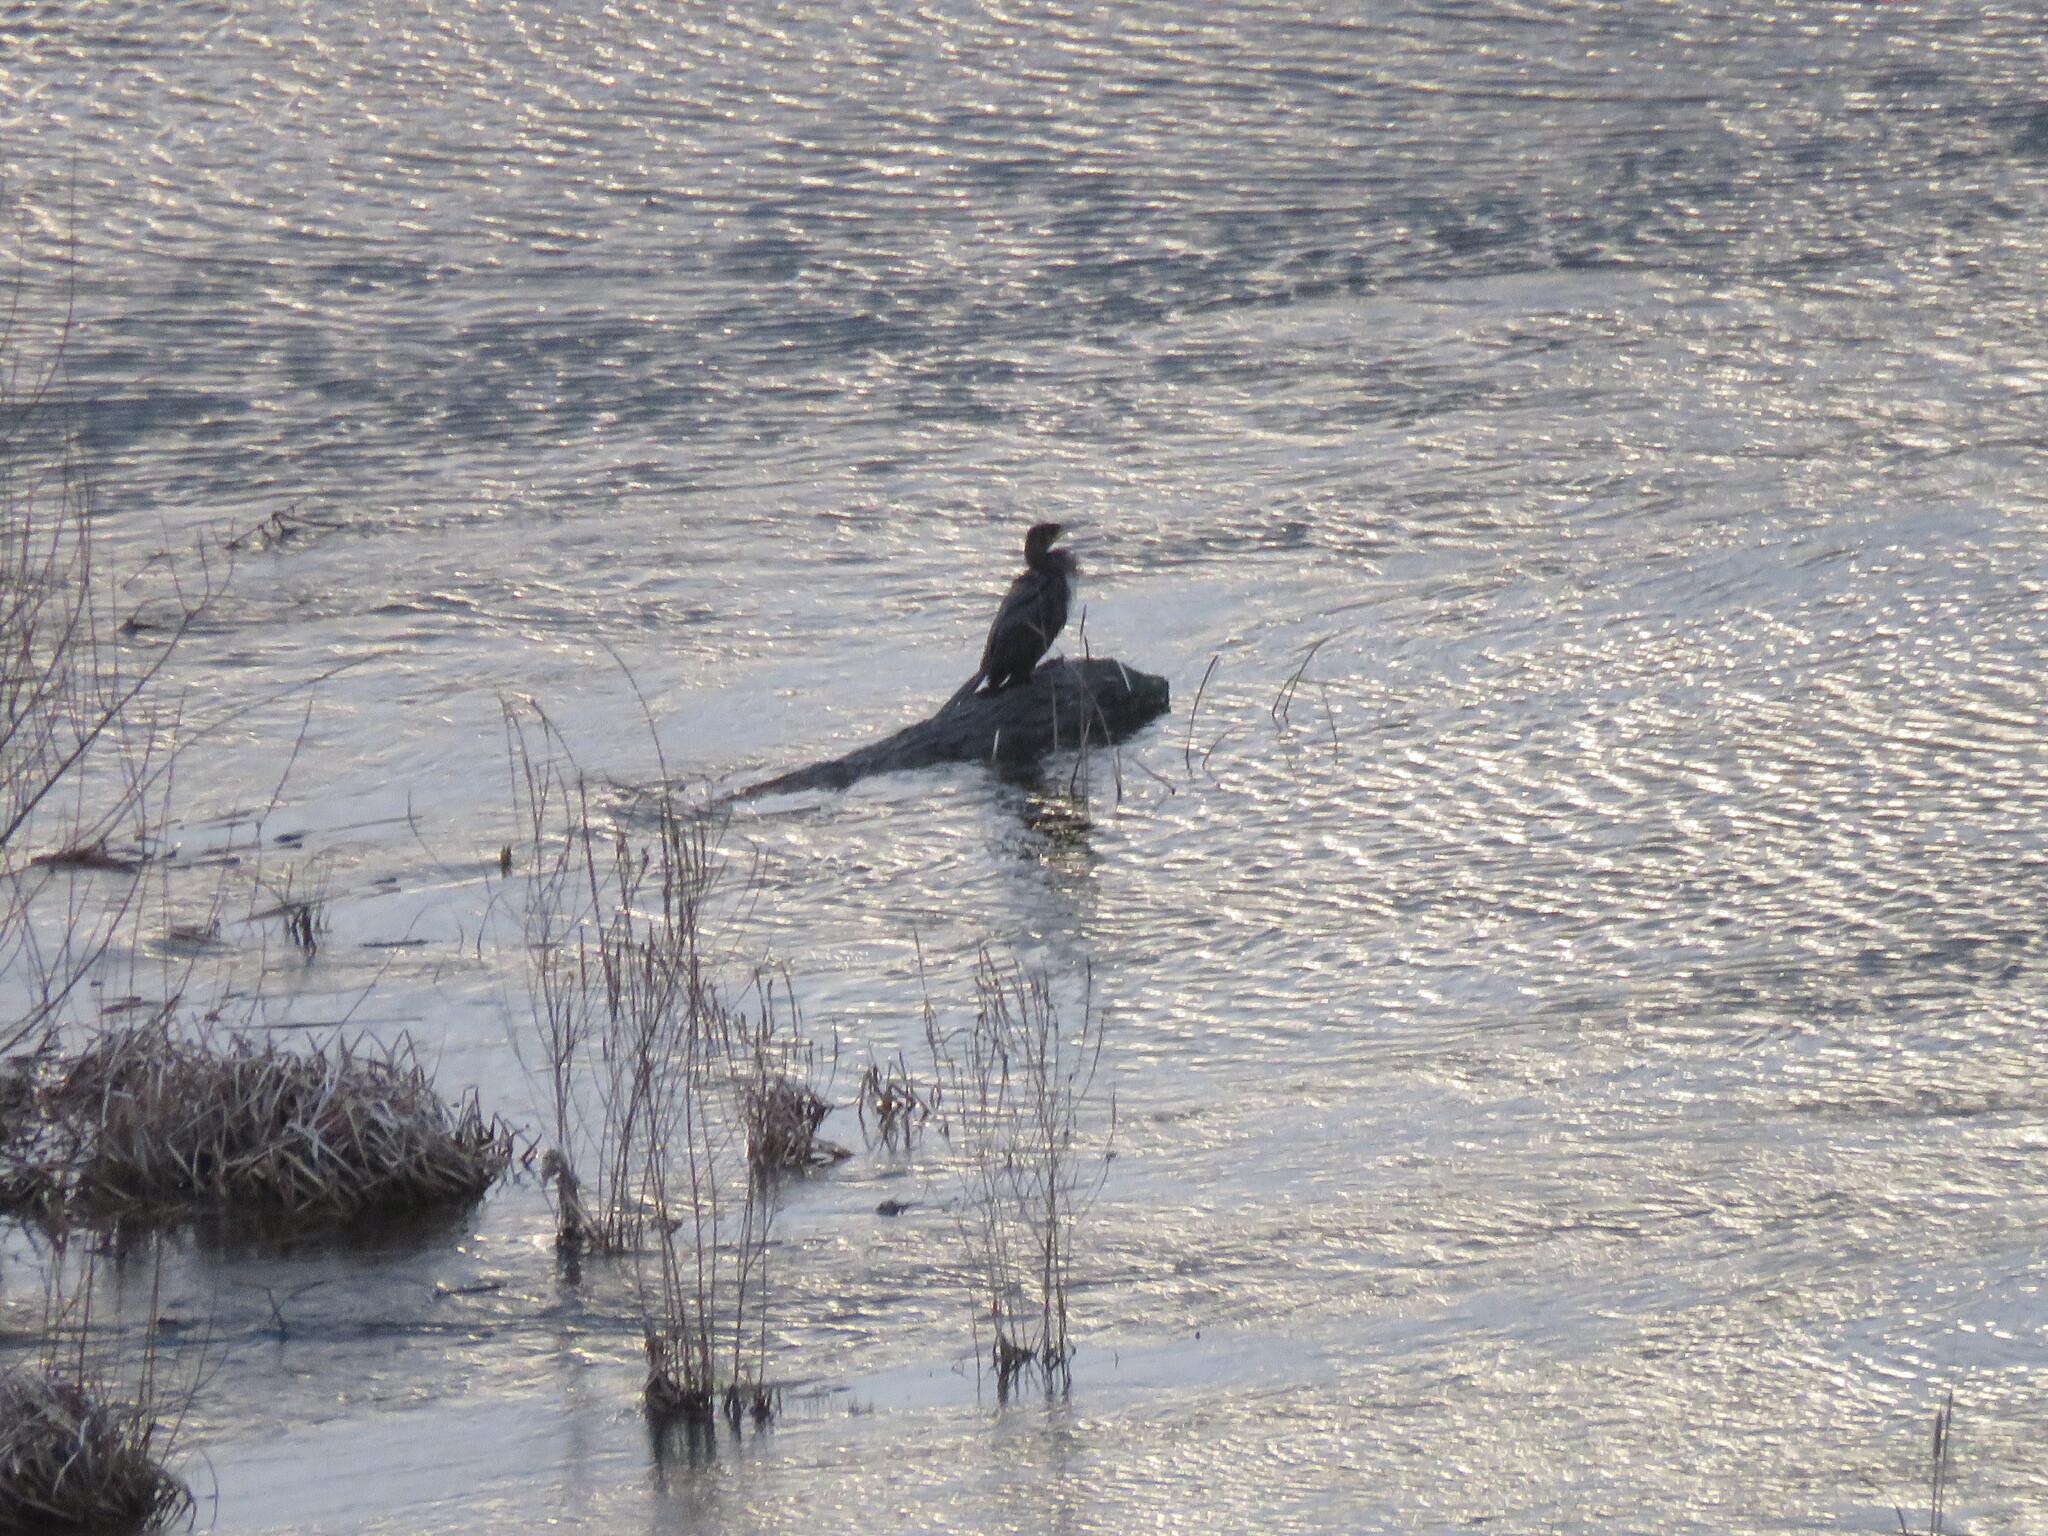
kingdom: Animalia
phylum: Chordata
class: Aves
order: Suliformes
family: Phalacrocoracidae
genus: Phalacrocorax
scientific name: Phalacrocorax carbo
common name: Great cormorant
